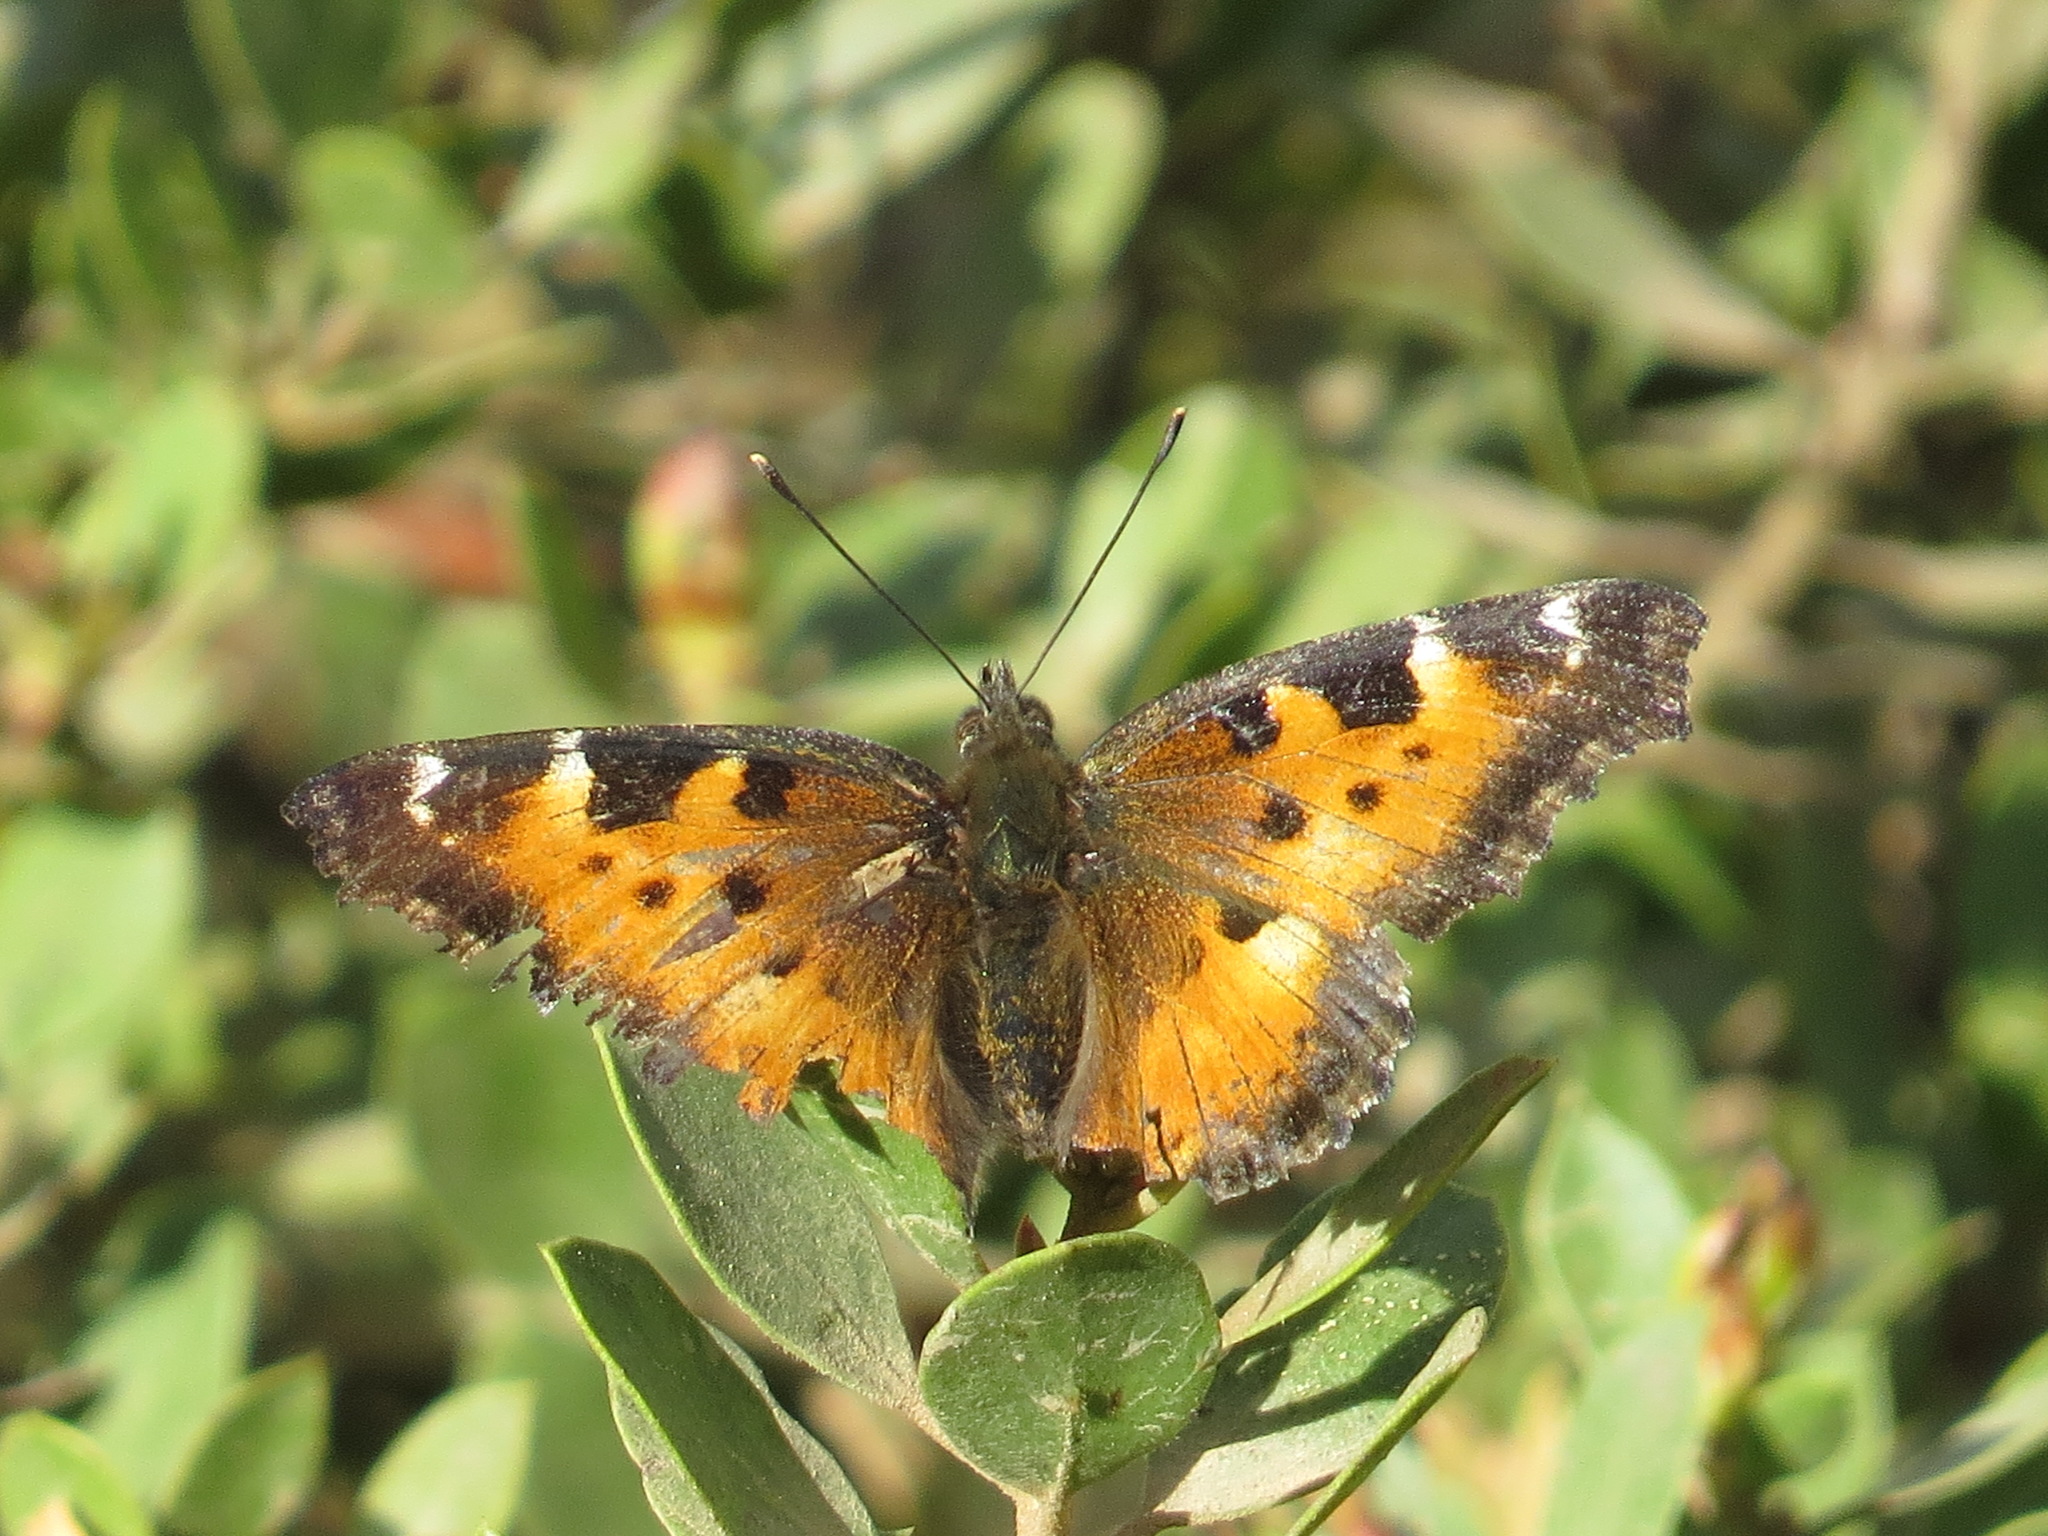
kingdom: Animalia
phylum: Arthropoda
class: Insecta
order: Lepidoptera
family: Nymphalidae
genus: Nymphalis
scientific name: Nymphalis californica
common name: California tortoiseshell
